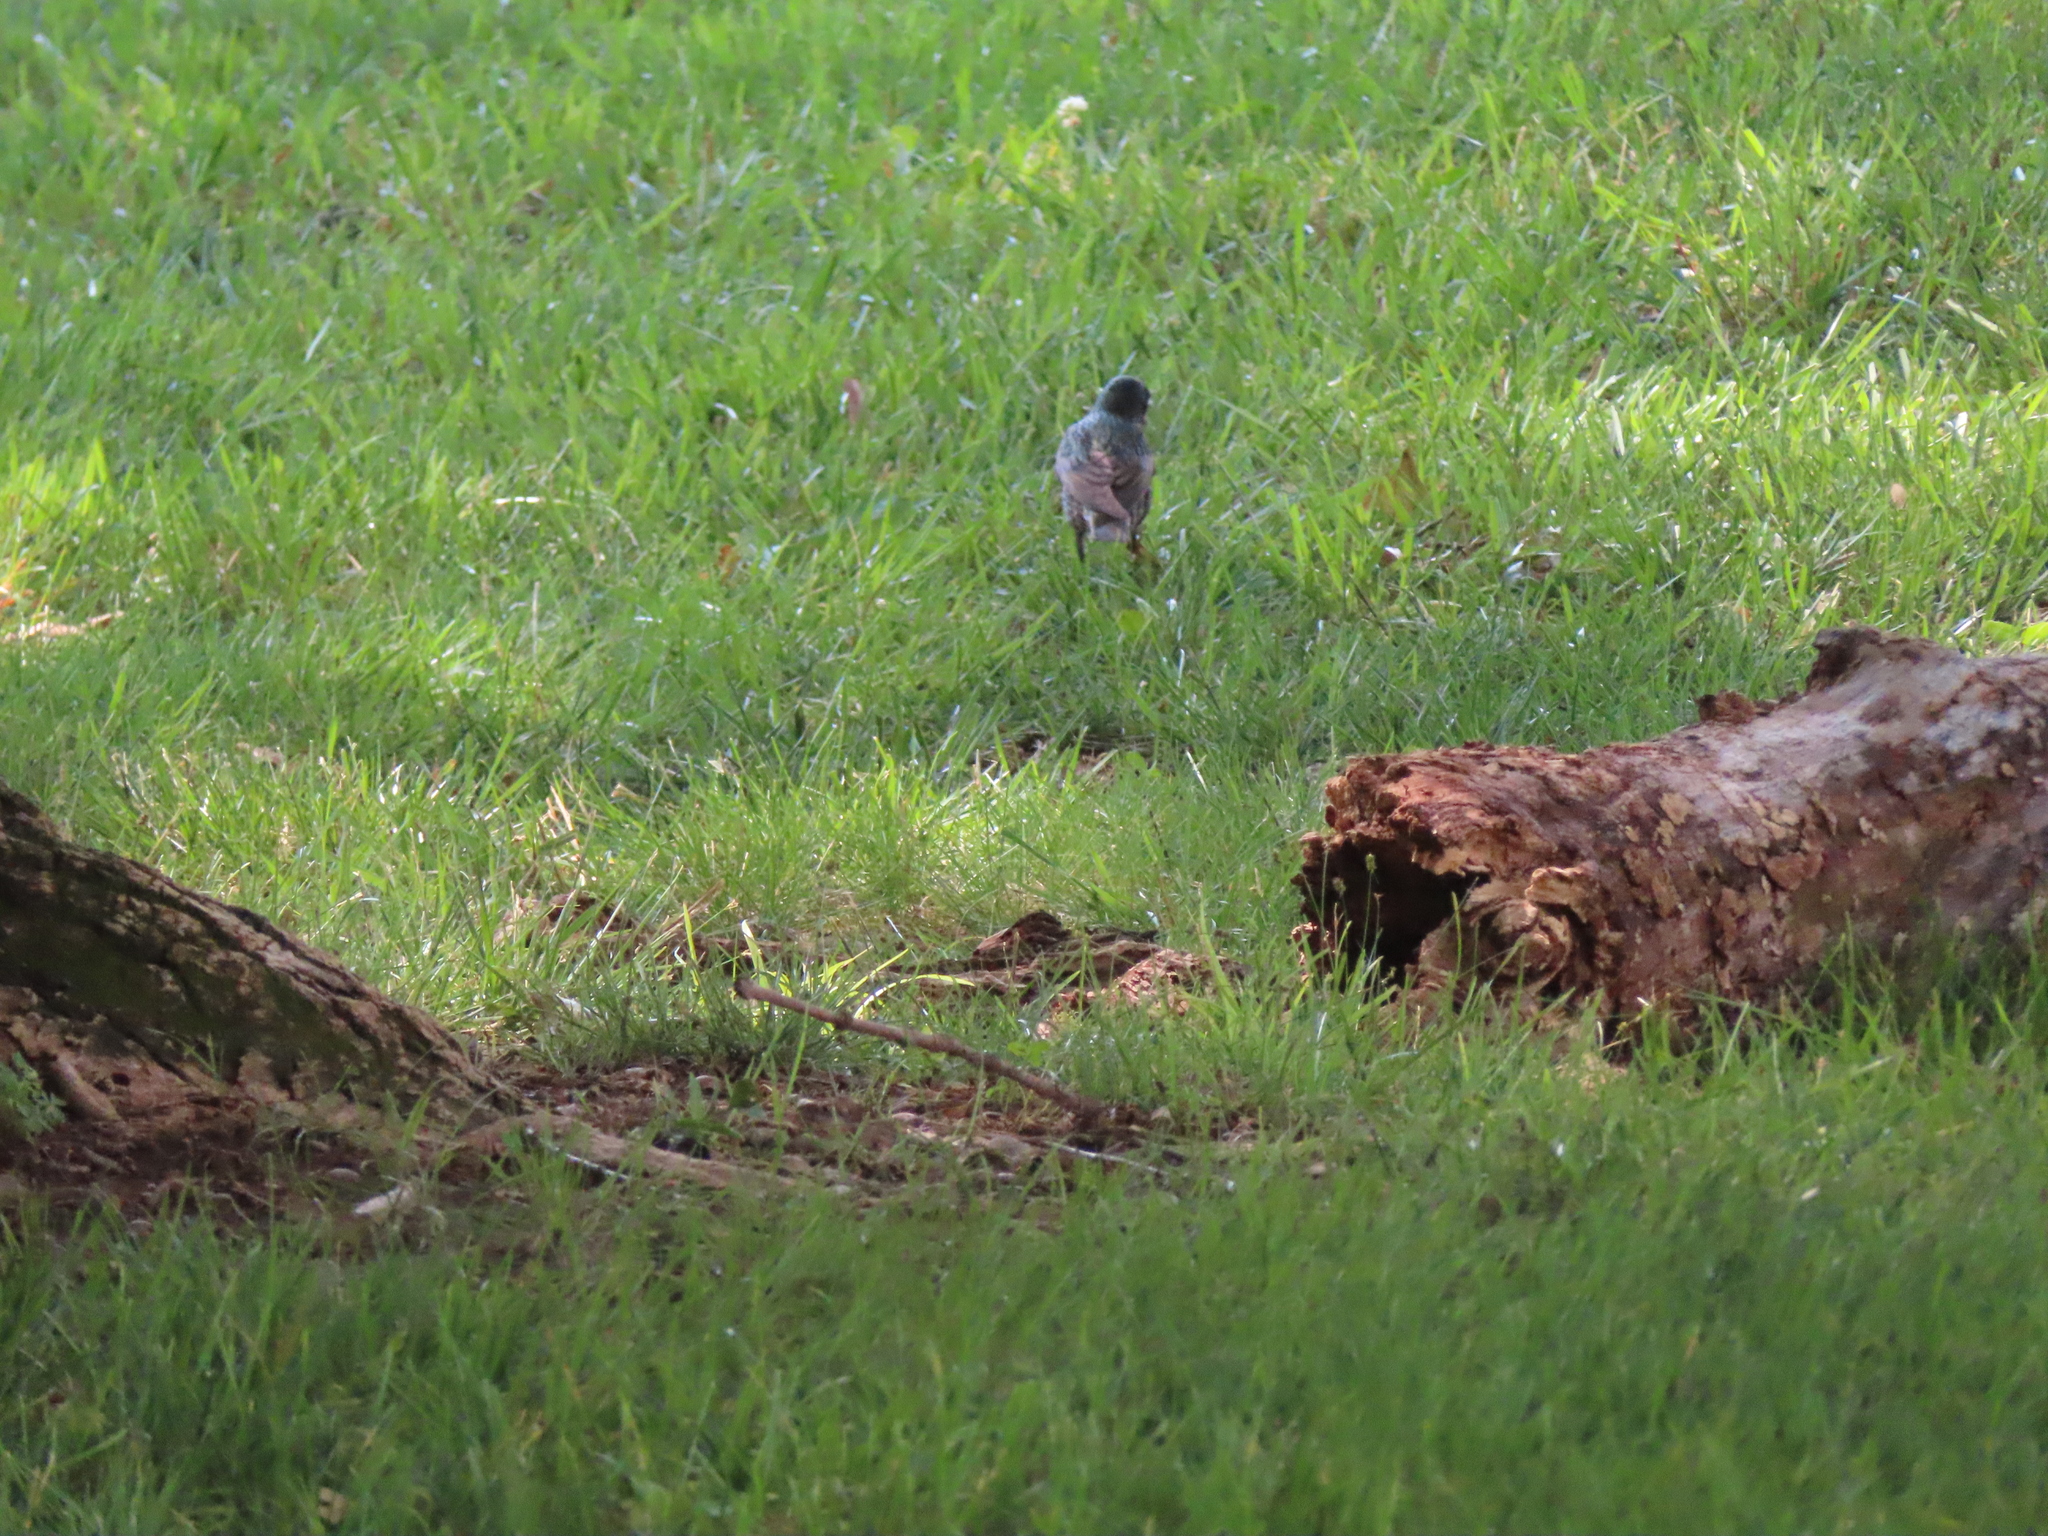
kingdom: Animalia
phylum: Chordata
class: Aves
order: Passeriformes
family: Sturnidae
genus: Sturnus
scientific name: Sturnus vulgaris
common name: Common starling
